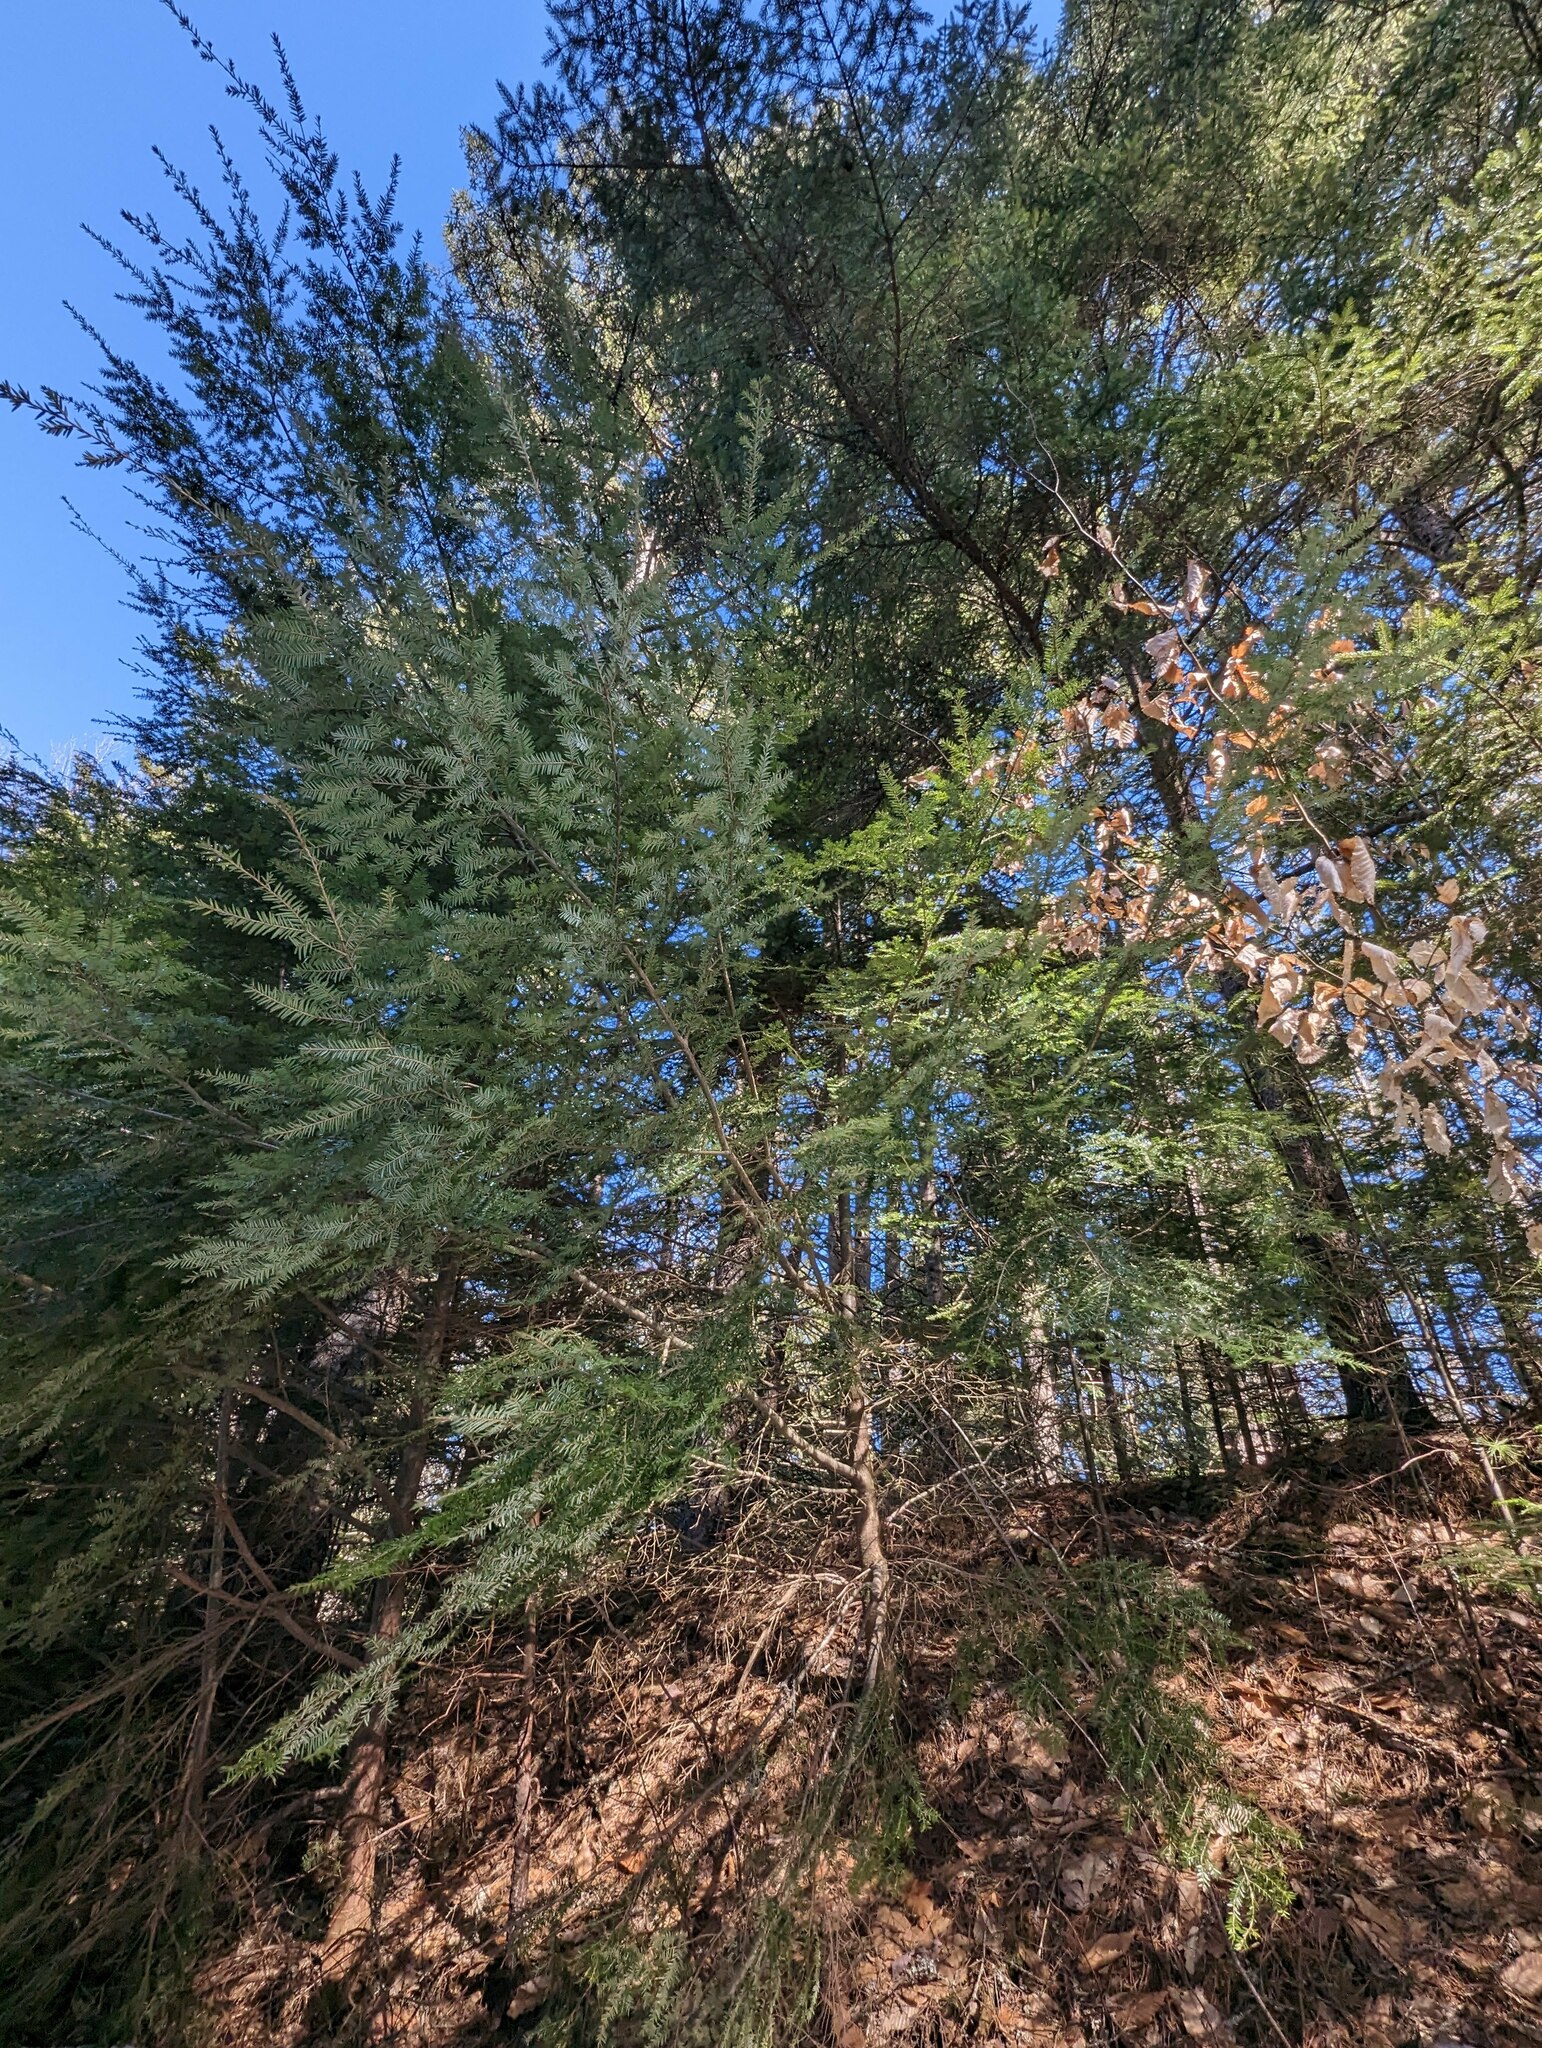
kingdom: Plantae
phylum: Tracheophyta
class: Pinopsida
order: Pinales
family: Pinaceae
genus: Tsuga
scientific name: Tsuga canadensis
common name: Eastern hemlock
